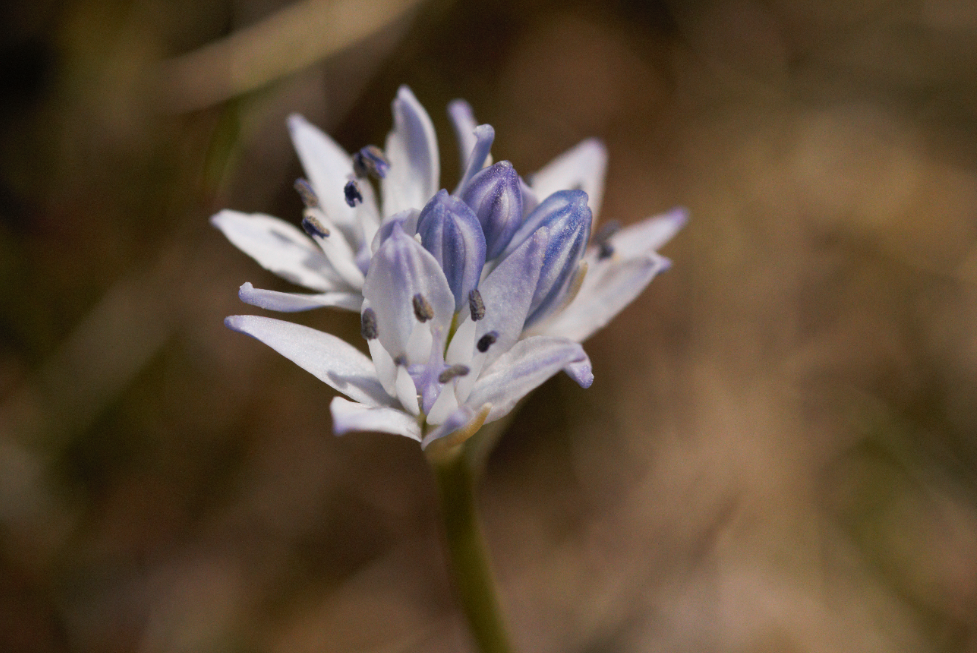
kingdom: Plantae
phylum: Tracheophyta
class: Liliopsida
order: Asparagales
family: Asparagaceae
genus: Scilla
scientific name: Scilla verna
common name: Spring squill
